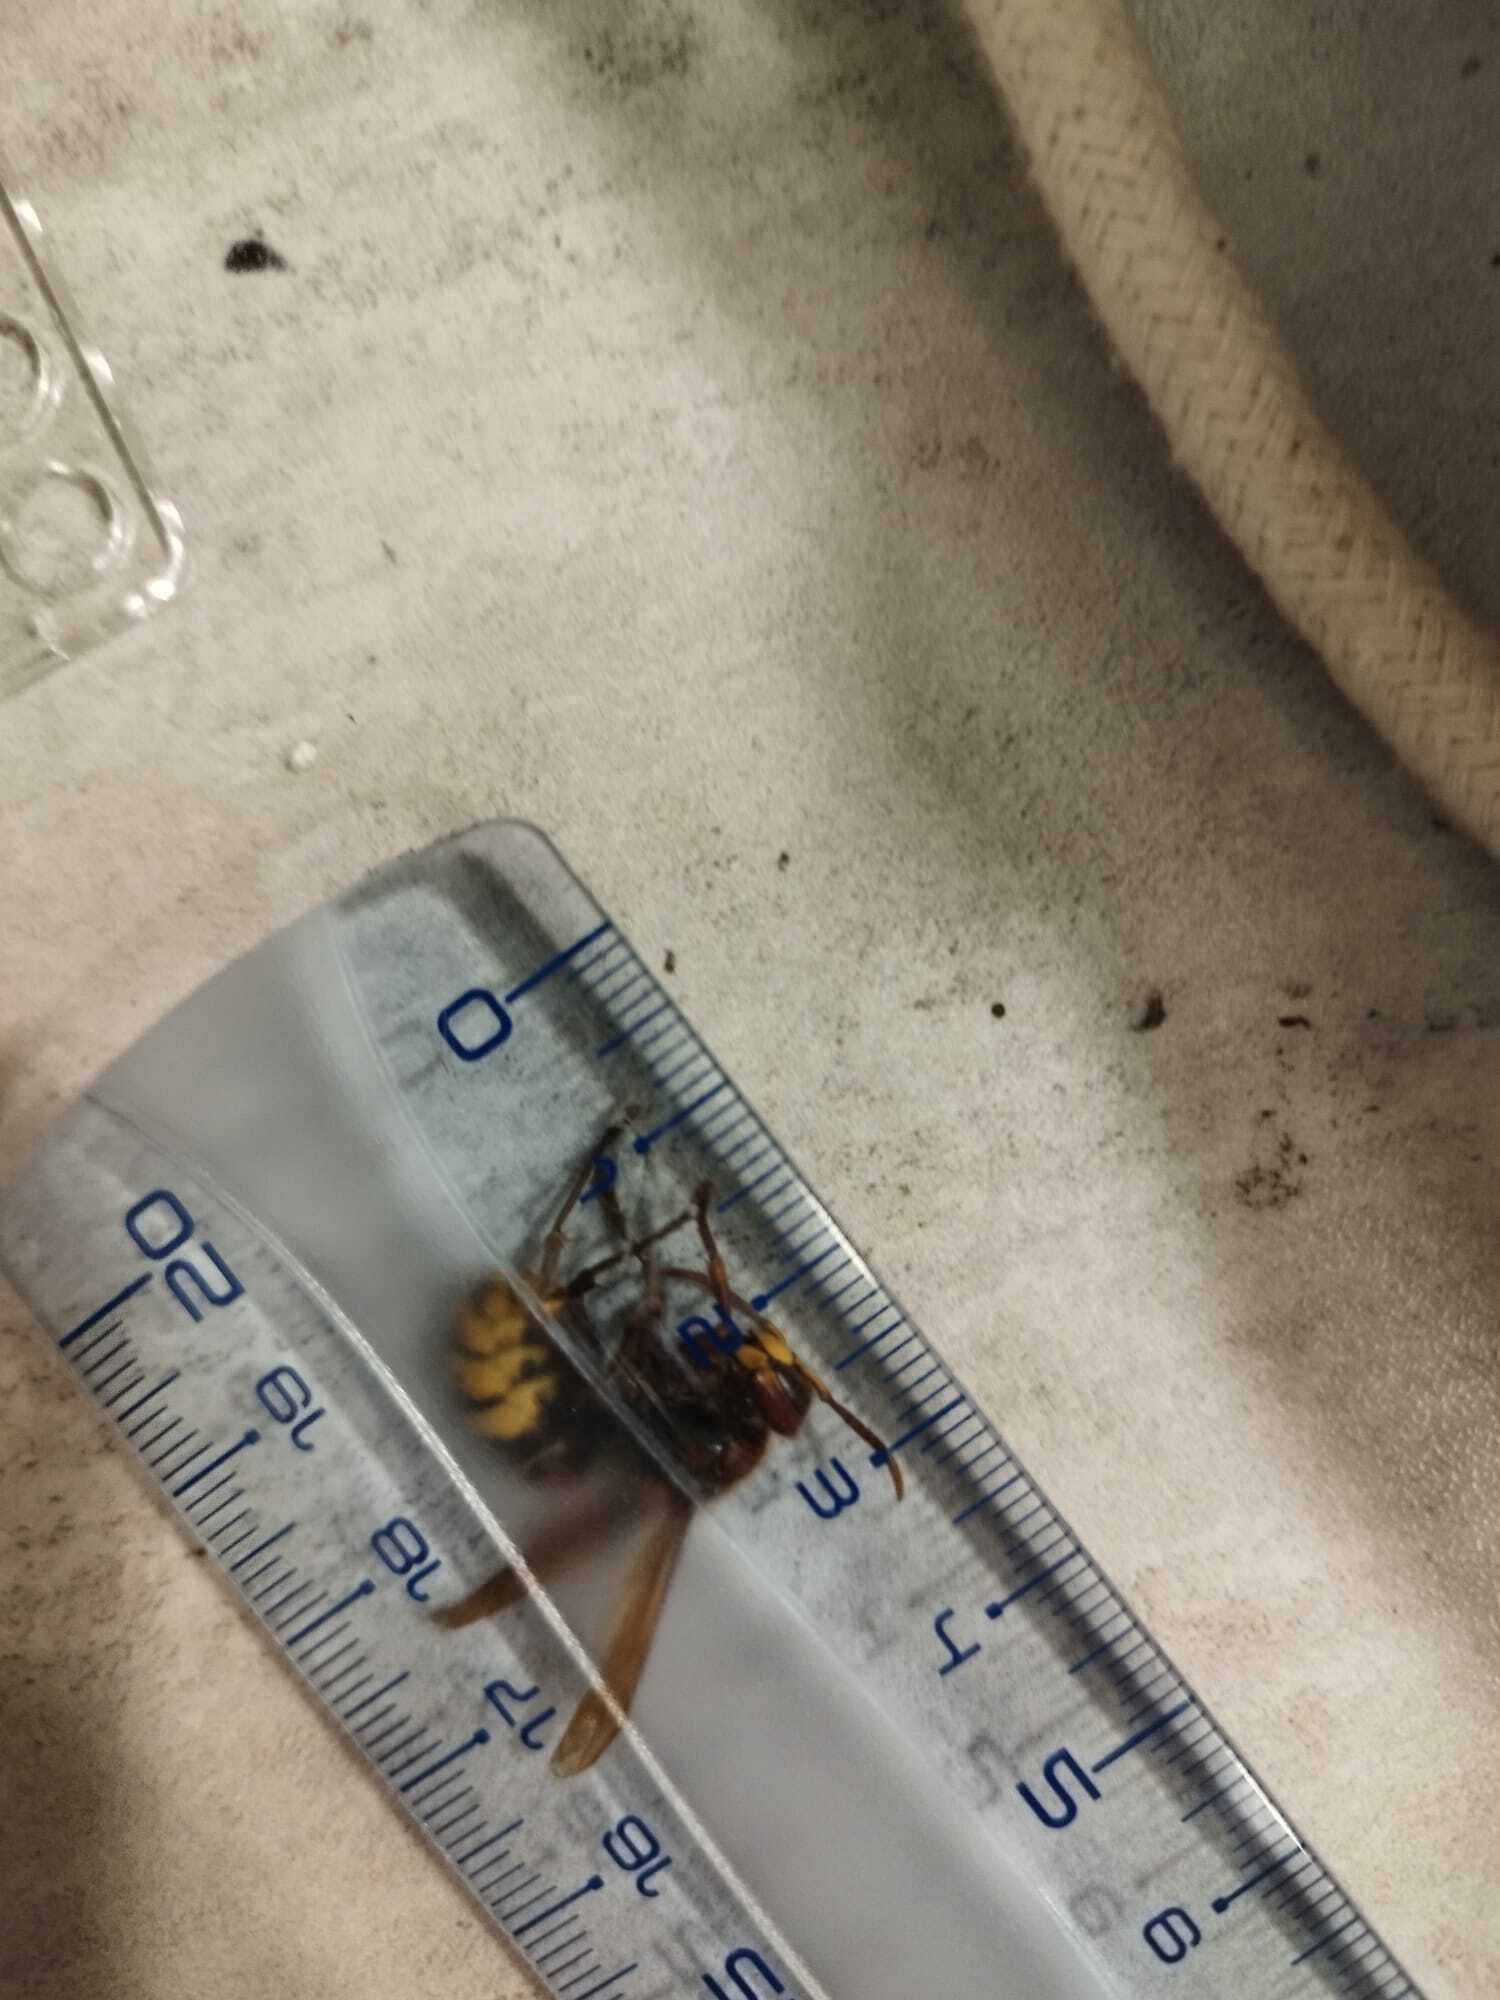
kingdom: Animalia
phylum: Arthropoda
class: Insecta
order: Hymenoptera
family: Vespidae
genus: Vespa
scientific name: Vespa crabro
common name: Hornet
